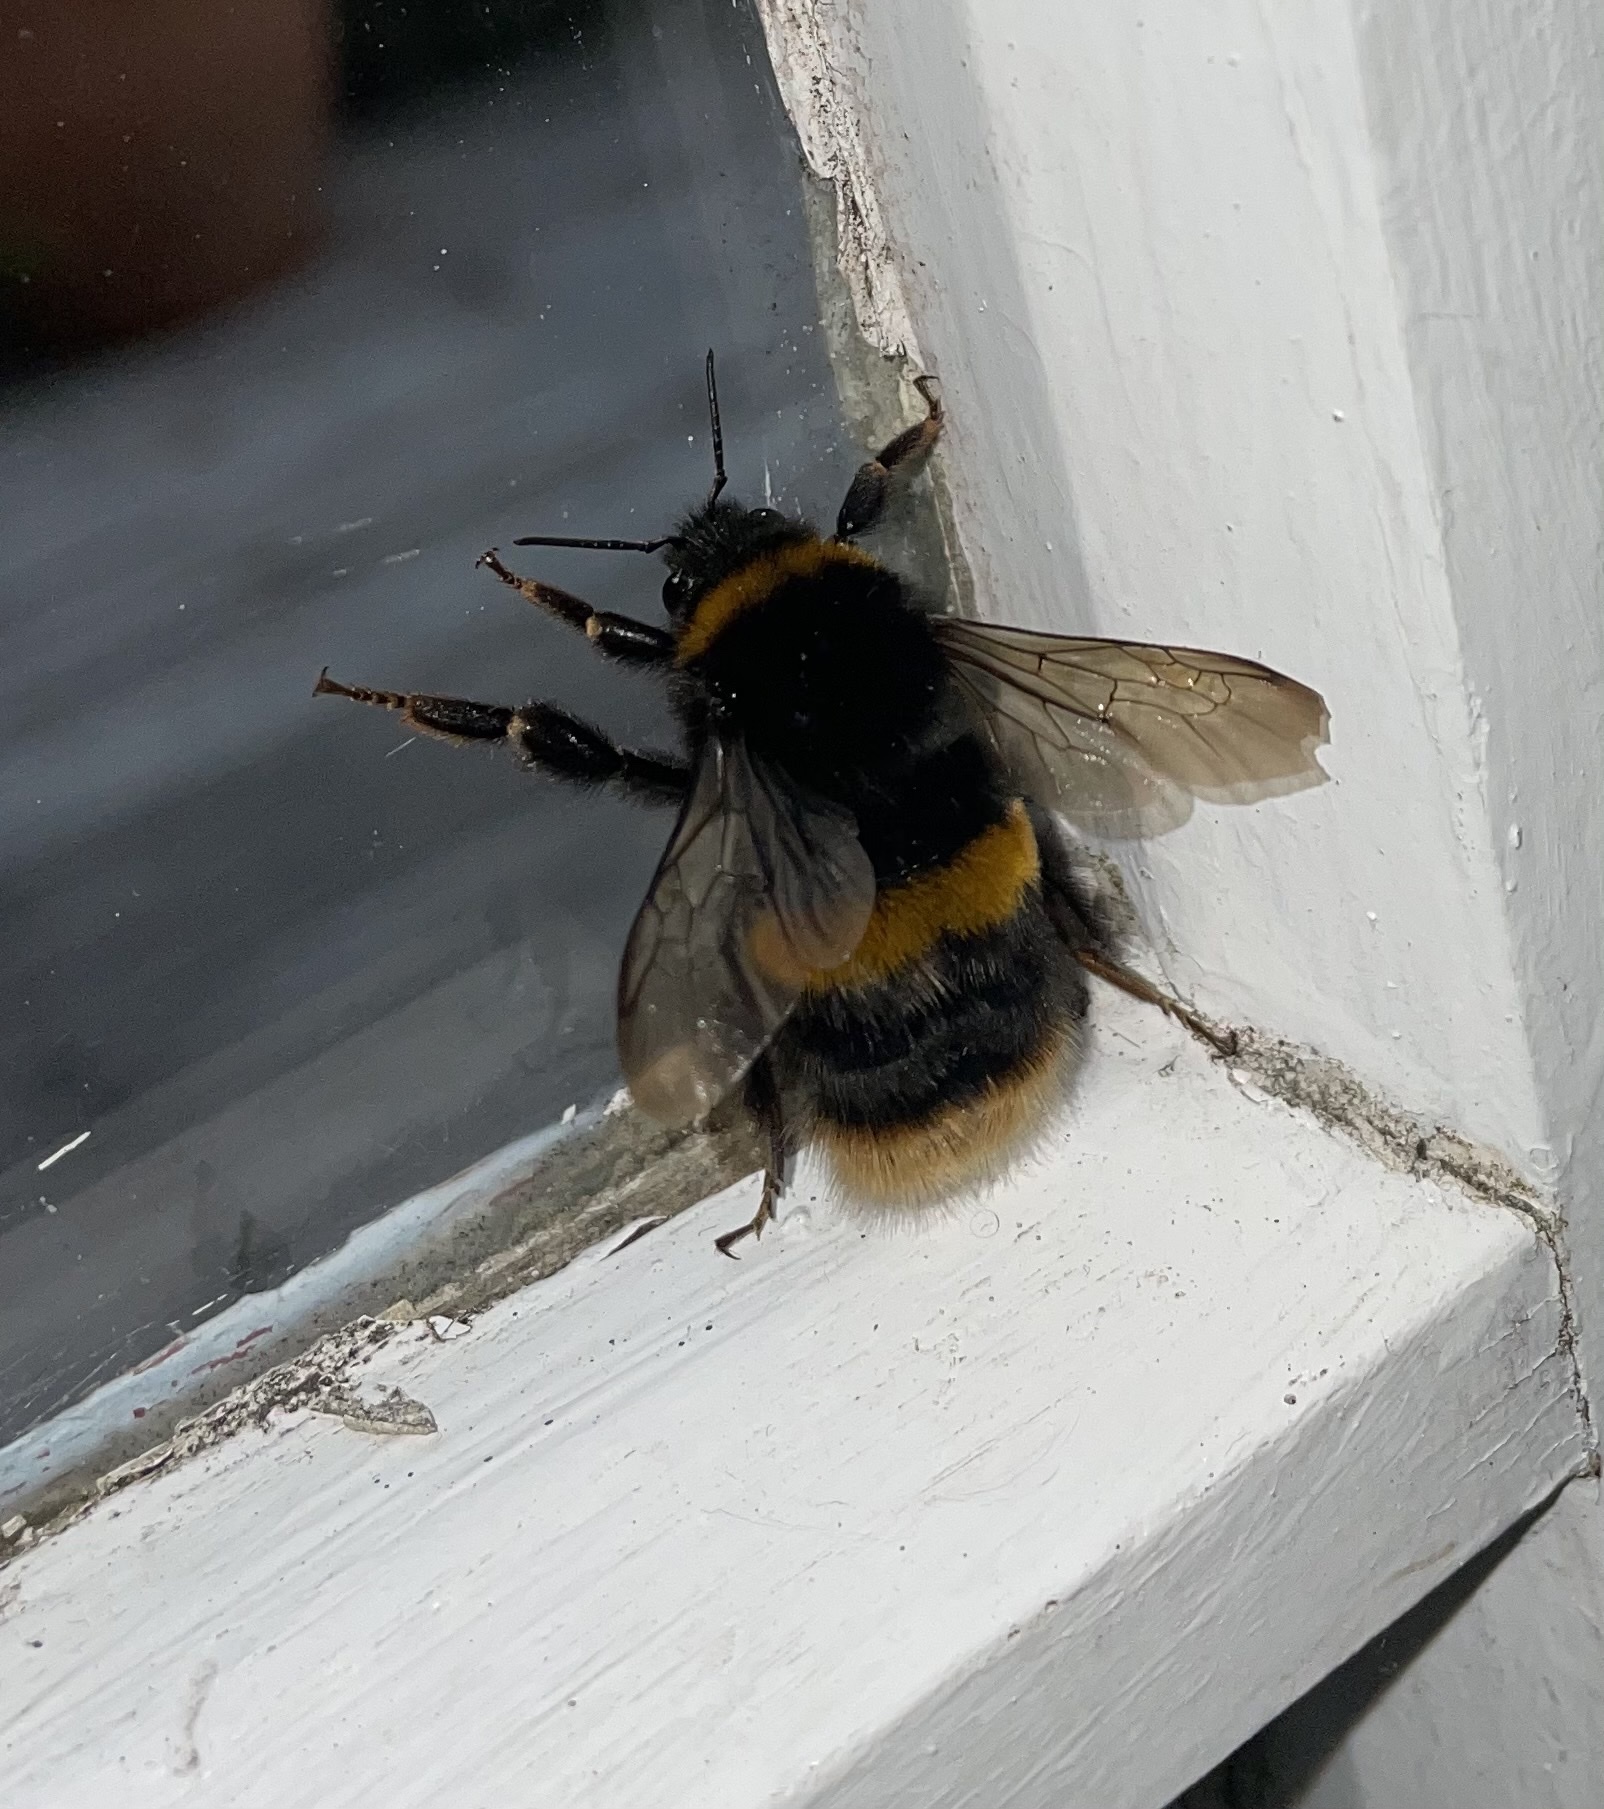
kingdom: Animalia
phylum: Arthropoda
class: Insecta
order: Hymenoptera
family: Apidae
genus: Bombus
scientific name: Bombus terrestris
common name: Buff-tailed bumblebee
